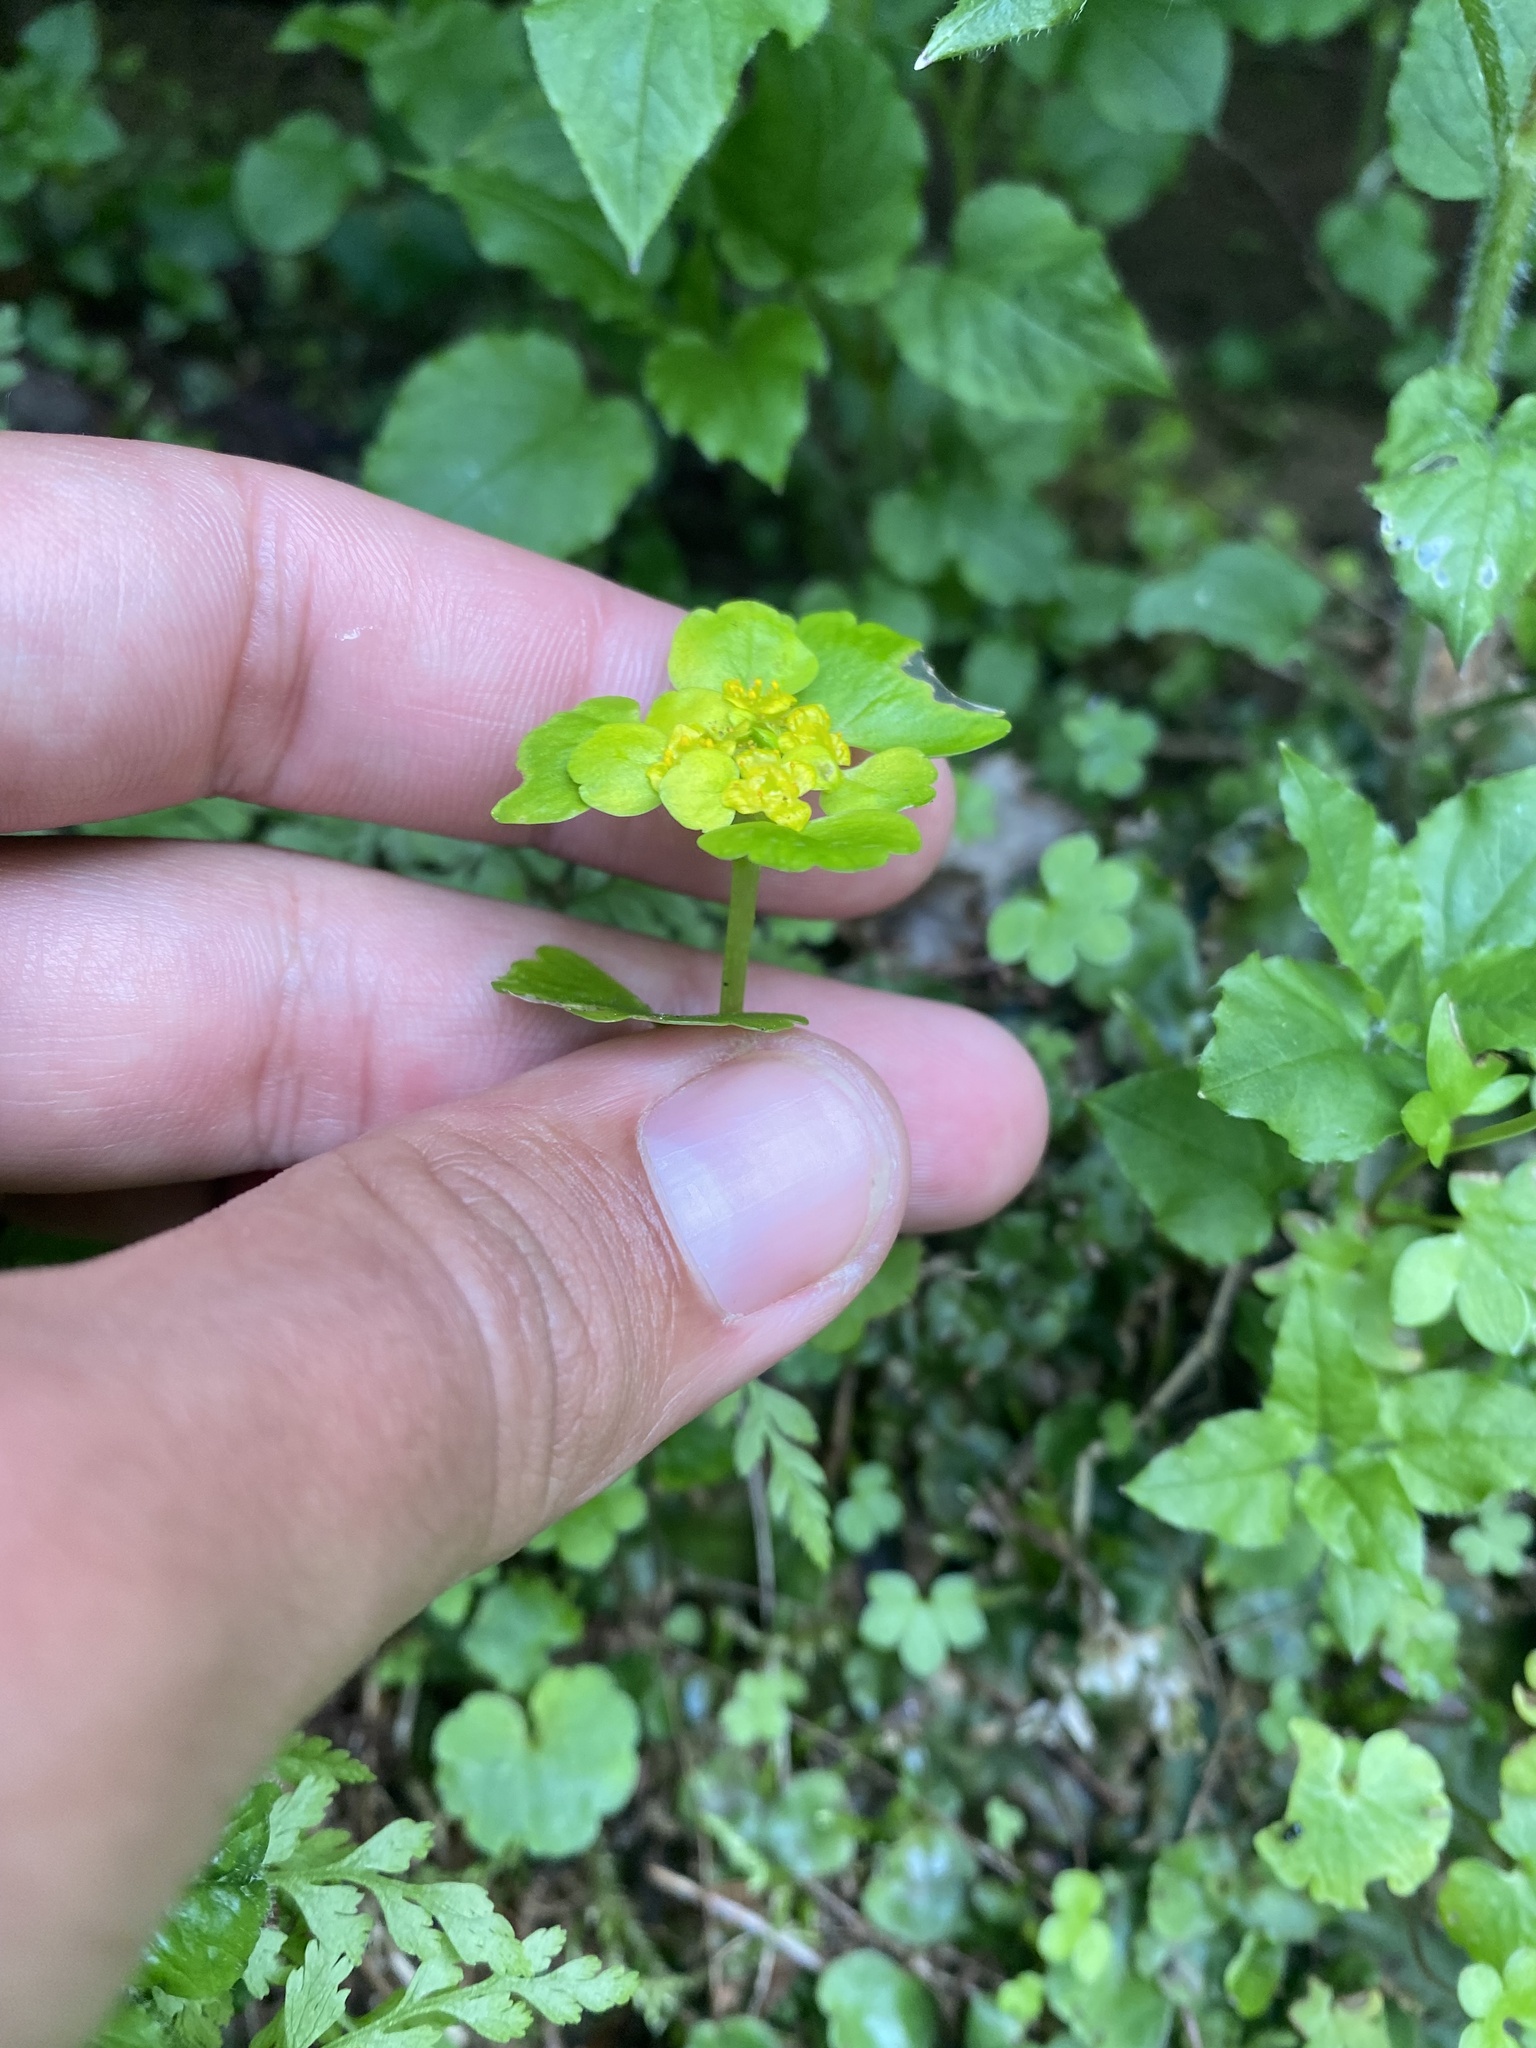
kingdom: Plantae
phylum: Tracheophyta
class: Magnoliopsida
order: Saxifragales
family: Saxifragaceae
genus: Chrysosplenium
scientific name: Chrysosplenium alternifolium
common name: Alternate-leaved golden-saxifrage
